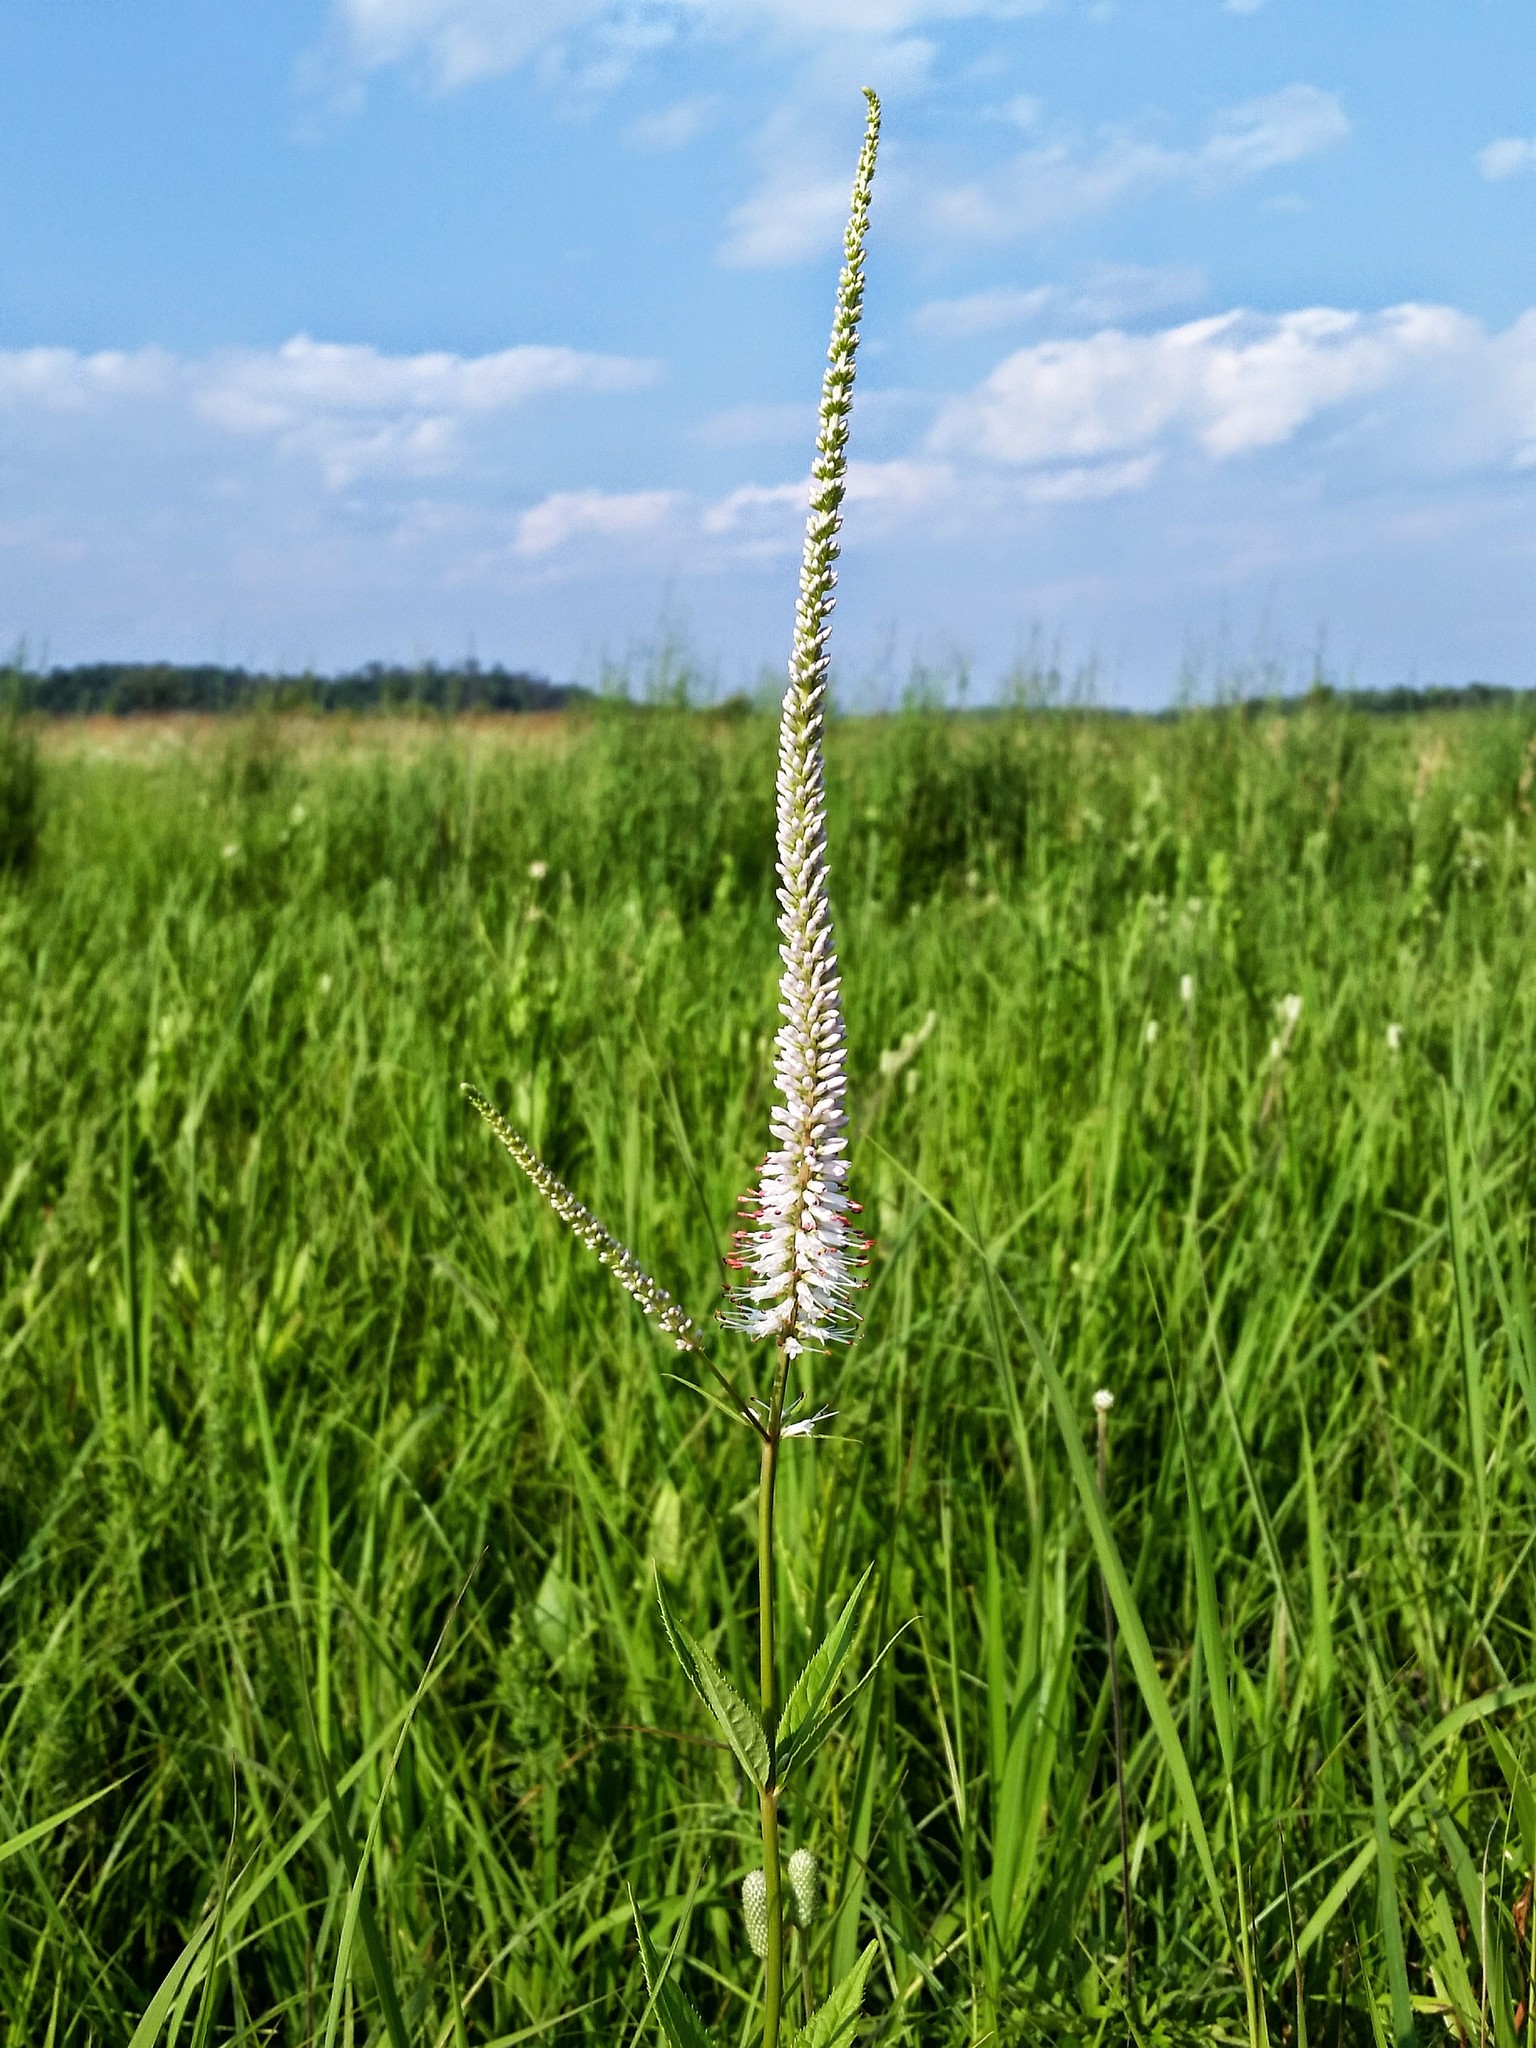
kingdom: Plantae
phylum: Tracheophyta
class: Magnoliopsida
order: Lamiales
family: Plantaginaceae
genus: Veronicastrum
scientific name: Veronicastrum virginicum
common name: Blackroot
